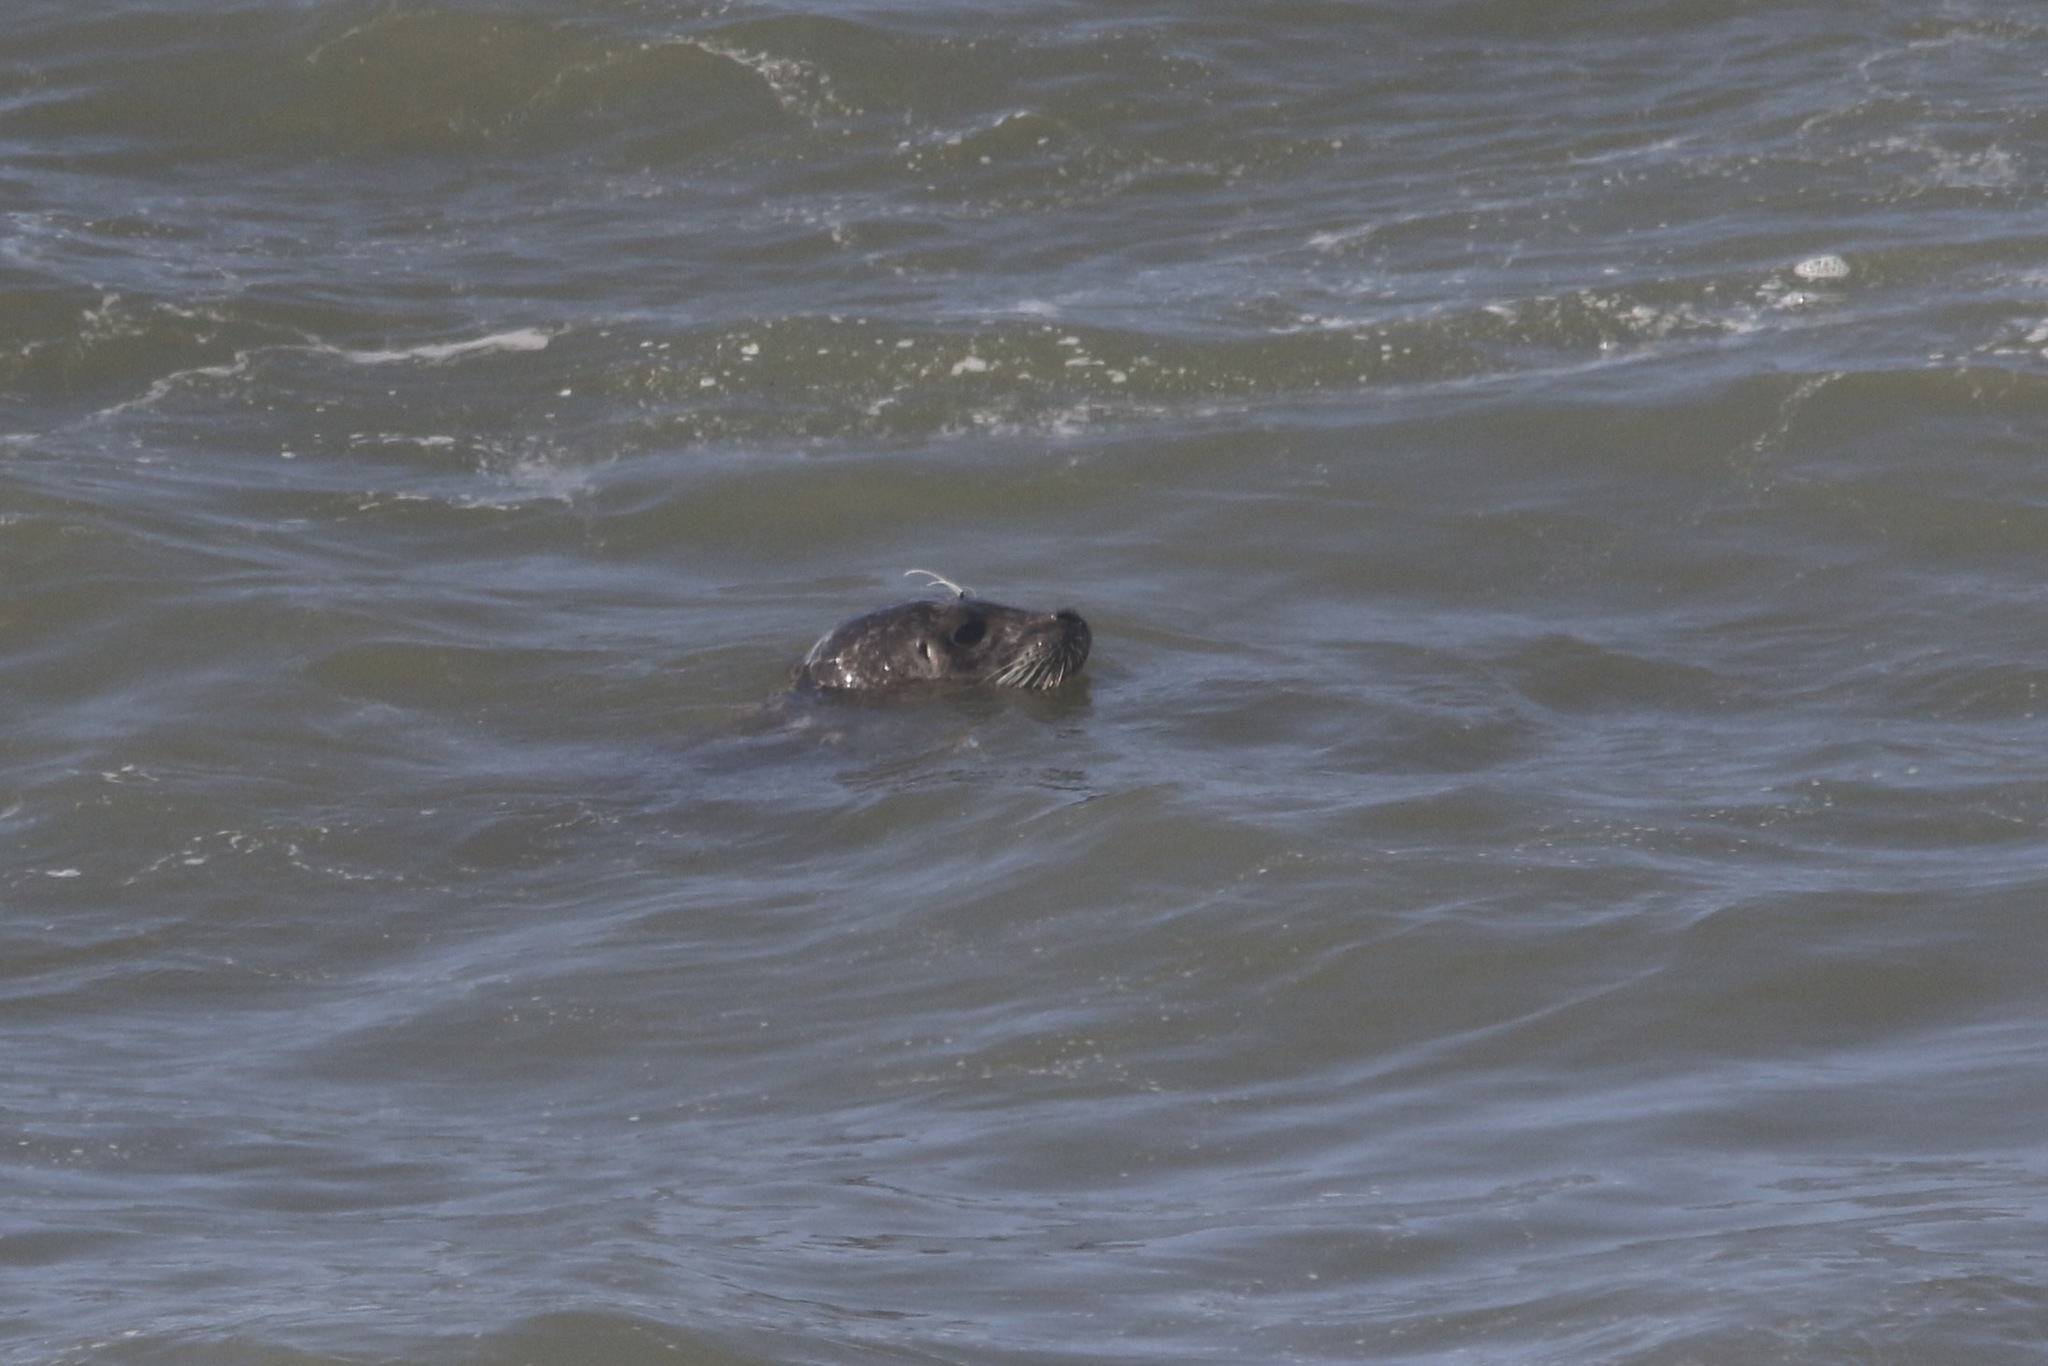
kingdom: Animalia
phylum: Chordata
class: Mammalia
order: Carnivora
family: Phocidae
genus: Phoca
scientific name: Phoca vitulina
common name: Harbor seal
